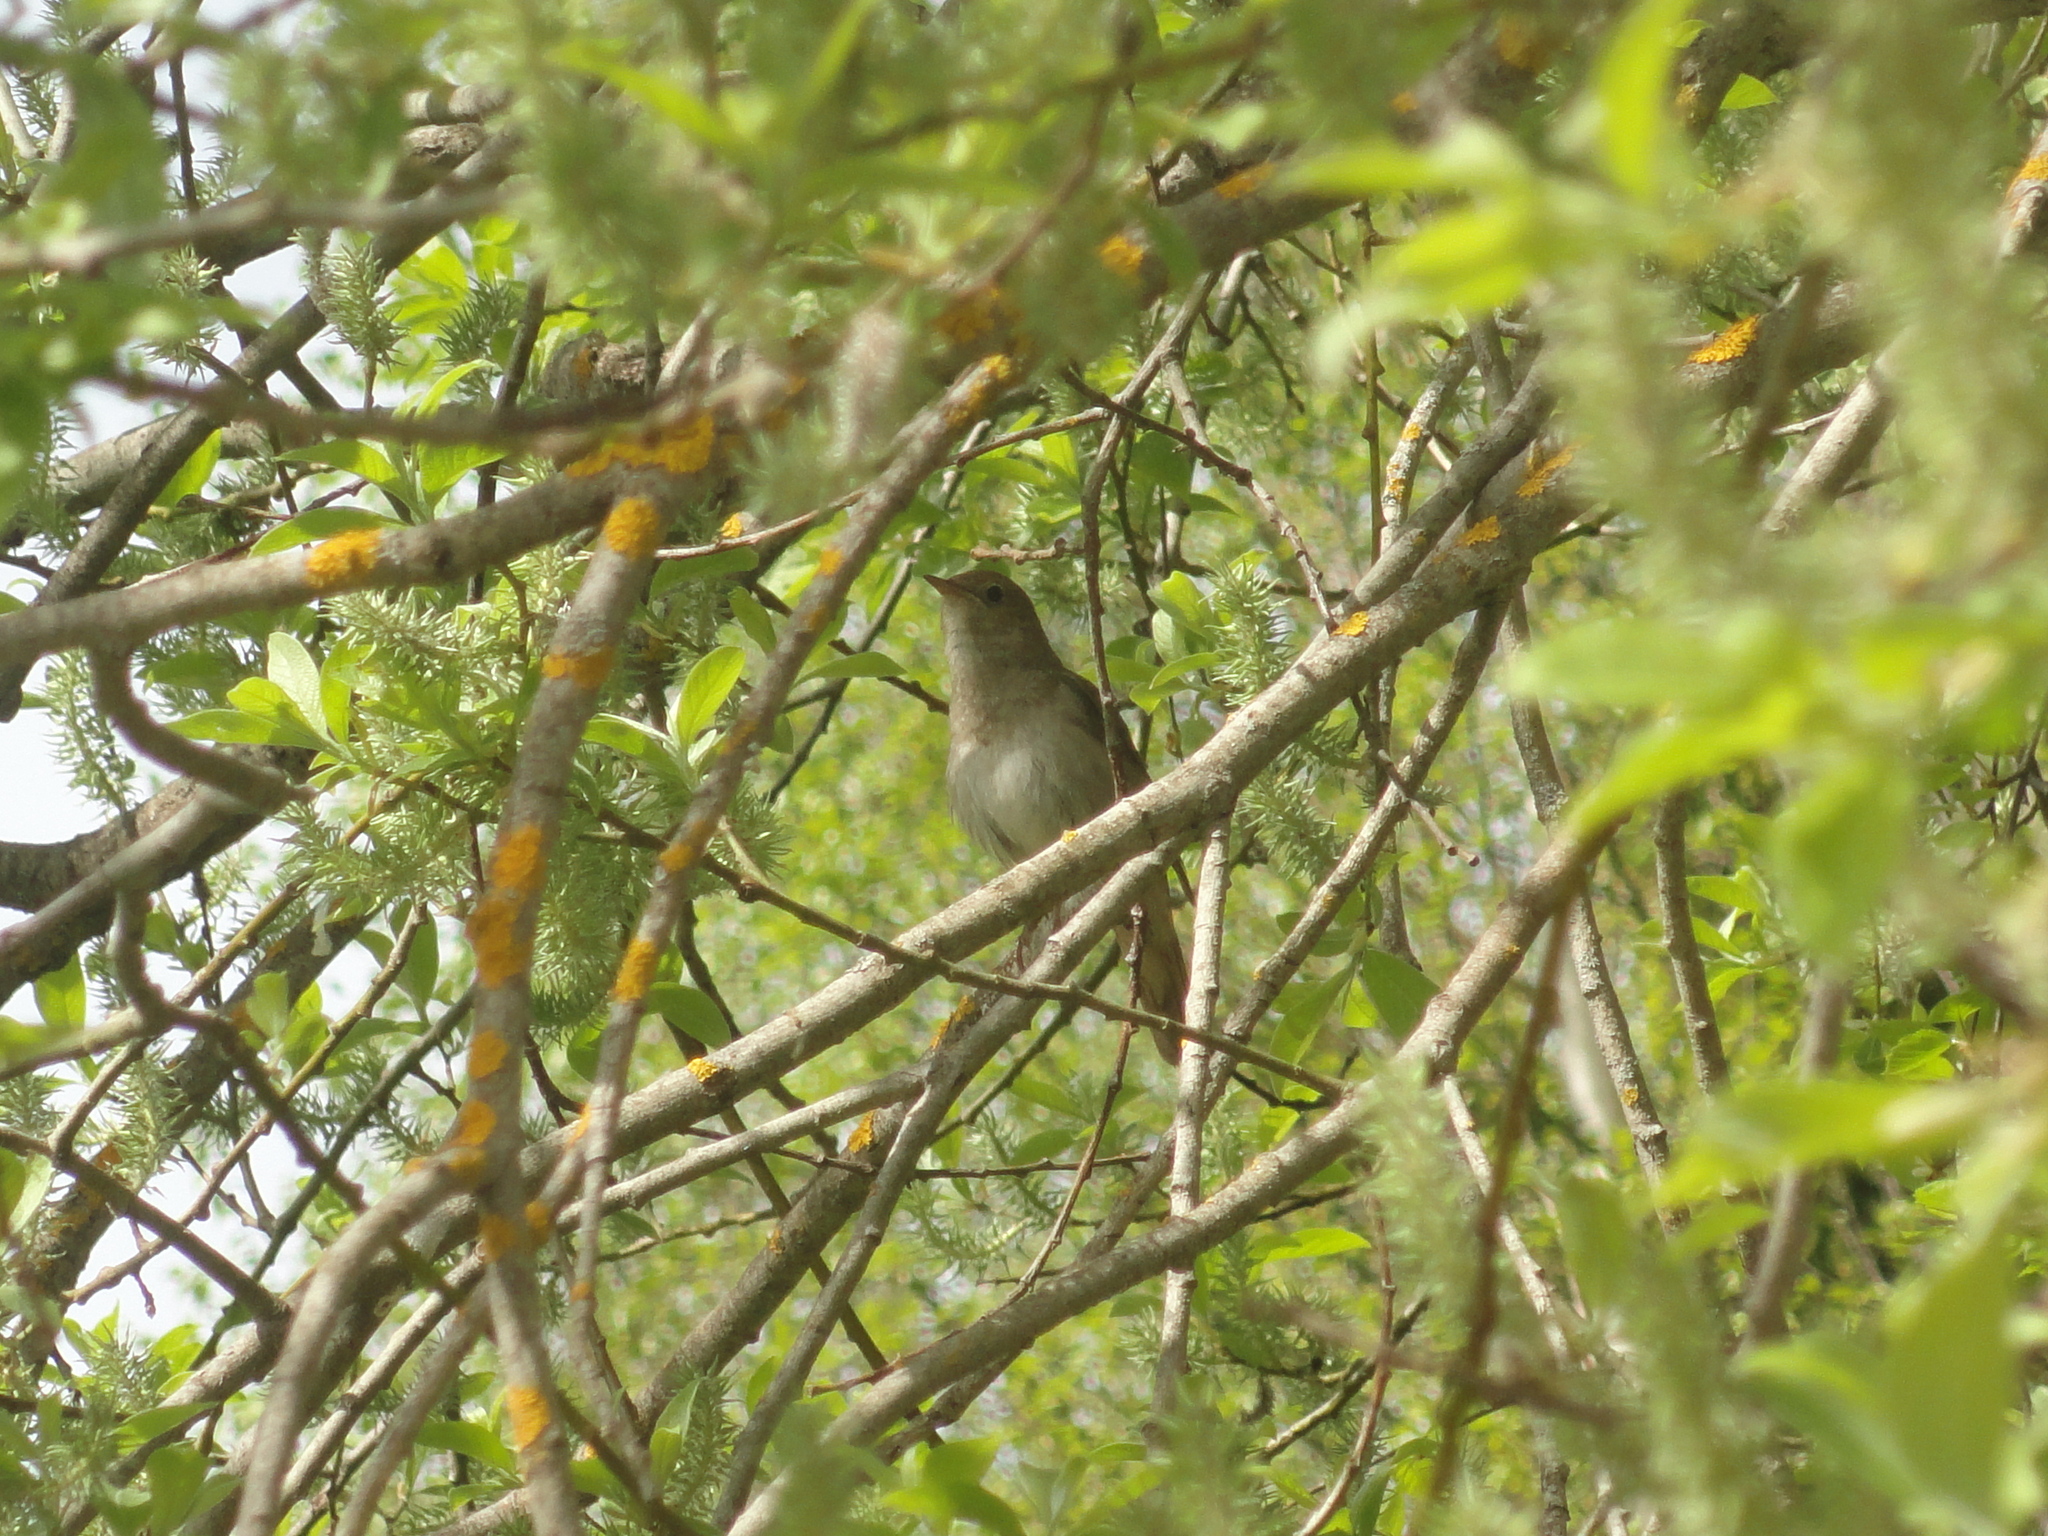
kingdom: Animalia
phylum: Chordata
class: Aves
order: Passeriformes
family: Muscicapidae
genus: Luscinia
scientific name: Luscinia luscinia
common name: Thrush nightingale
